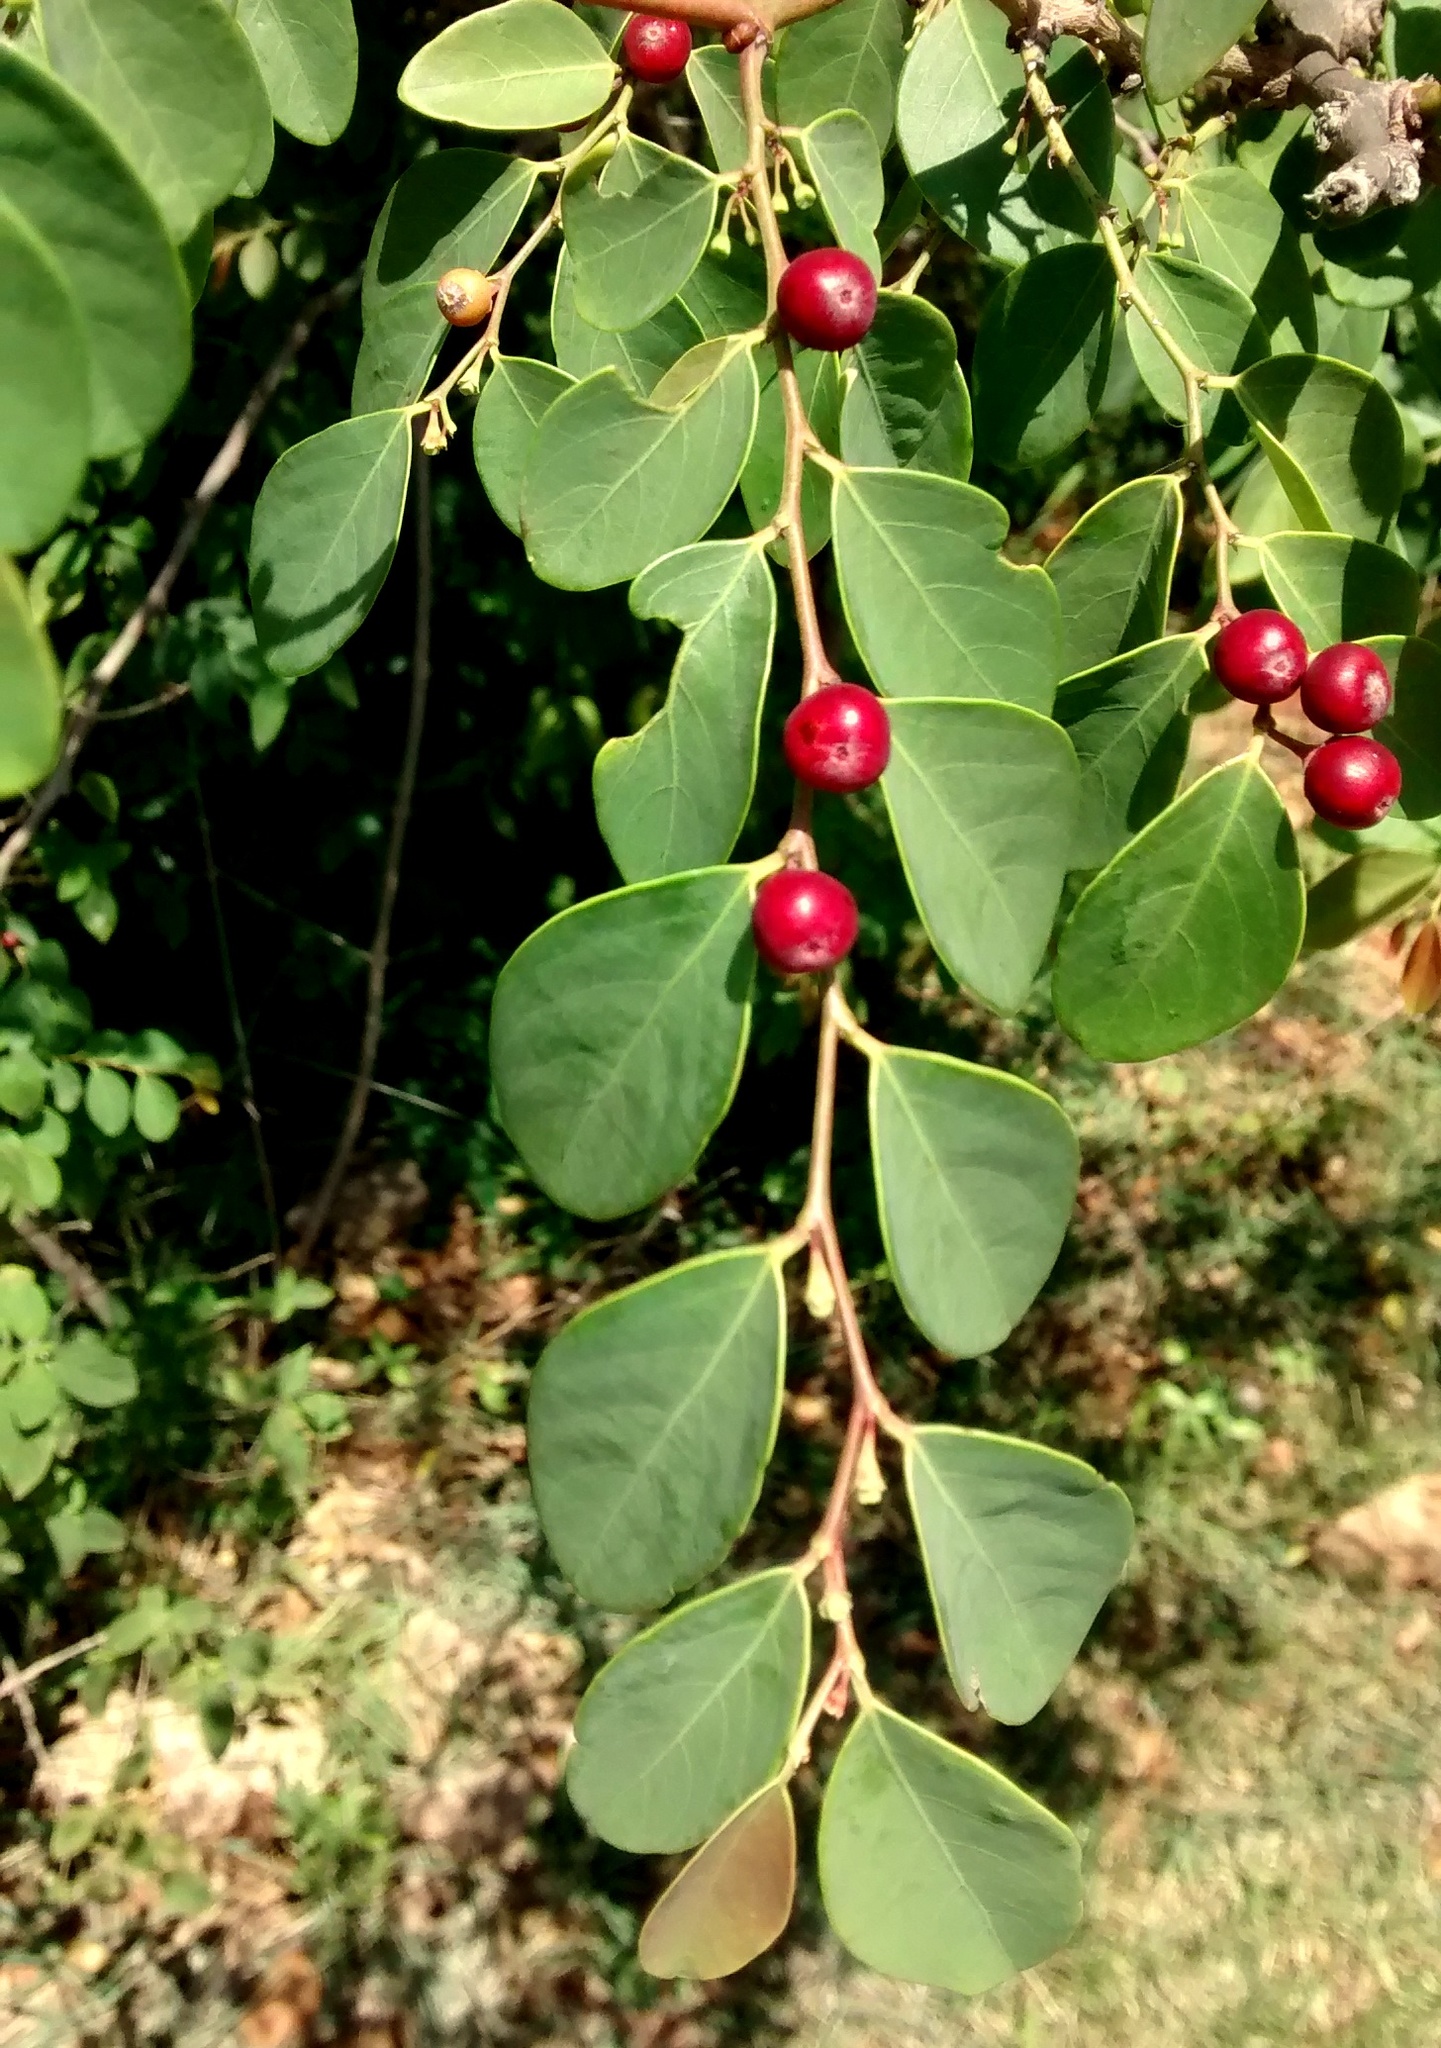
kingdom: Plantae
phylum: Tracheophyta
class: Magnoliopsida
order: Malpighiales
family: Phyllanthaceae
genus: Breynia
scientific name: Breynia vitis-idaea
